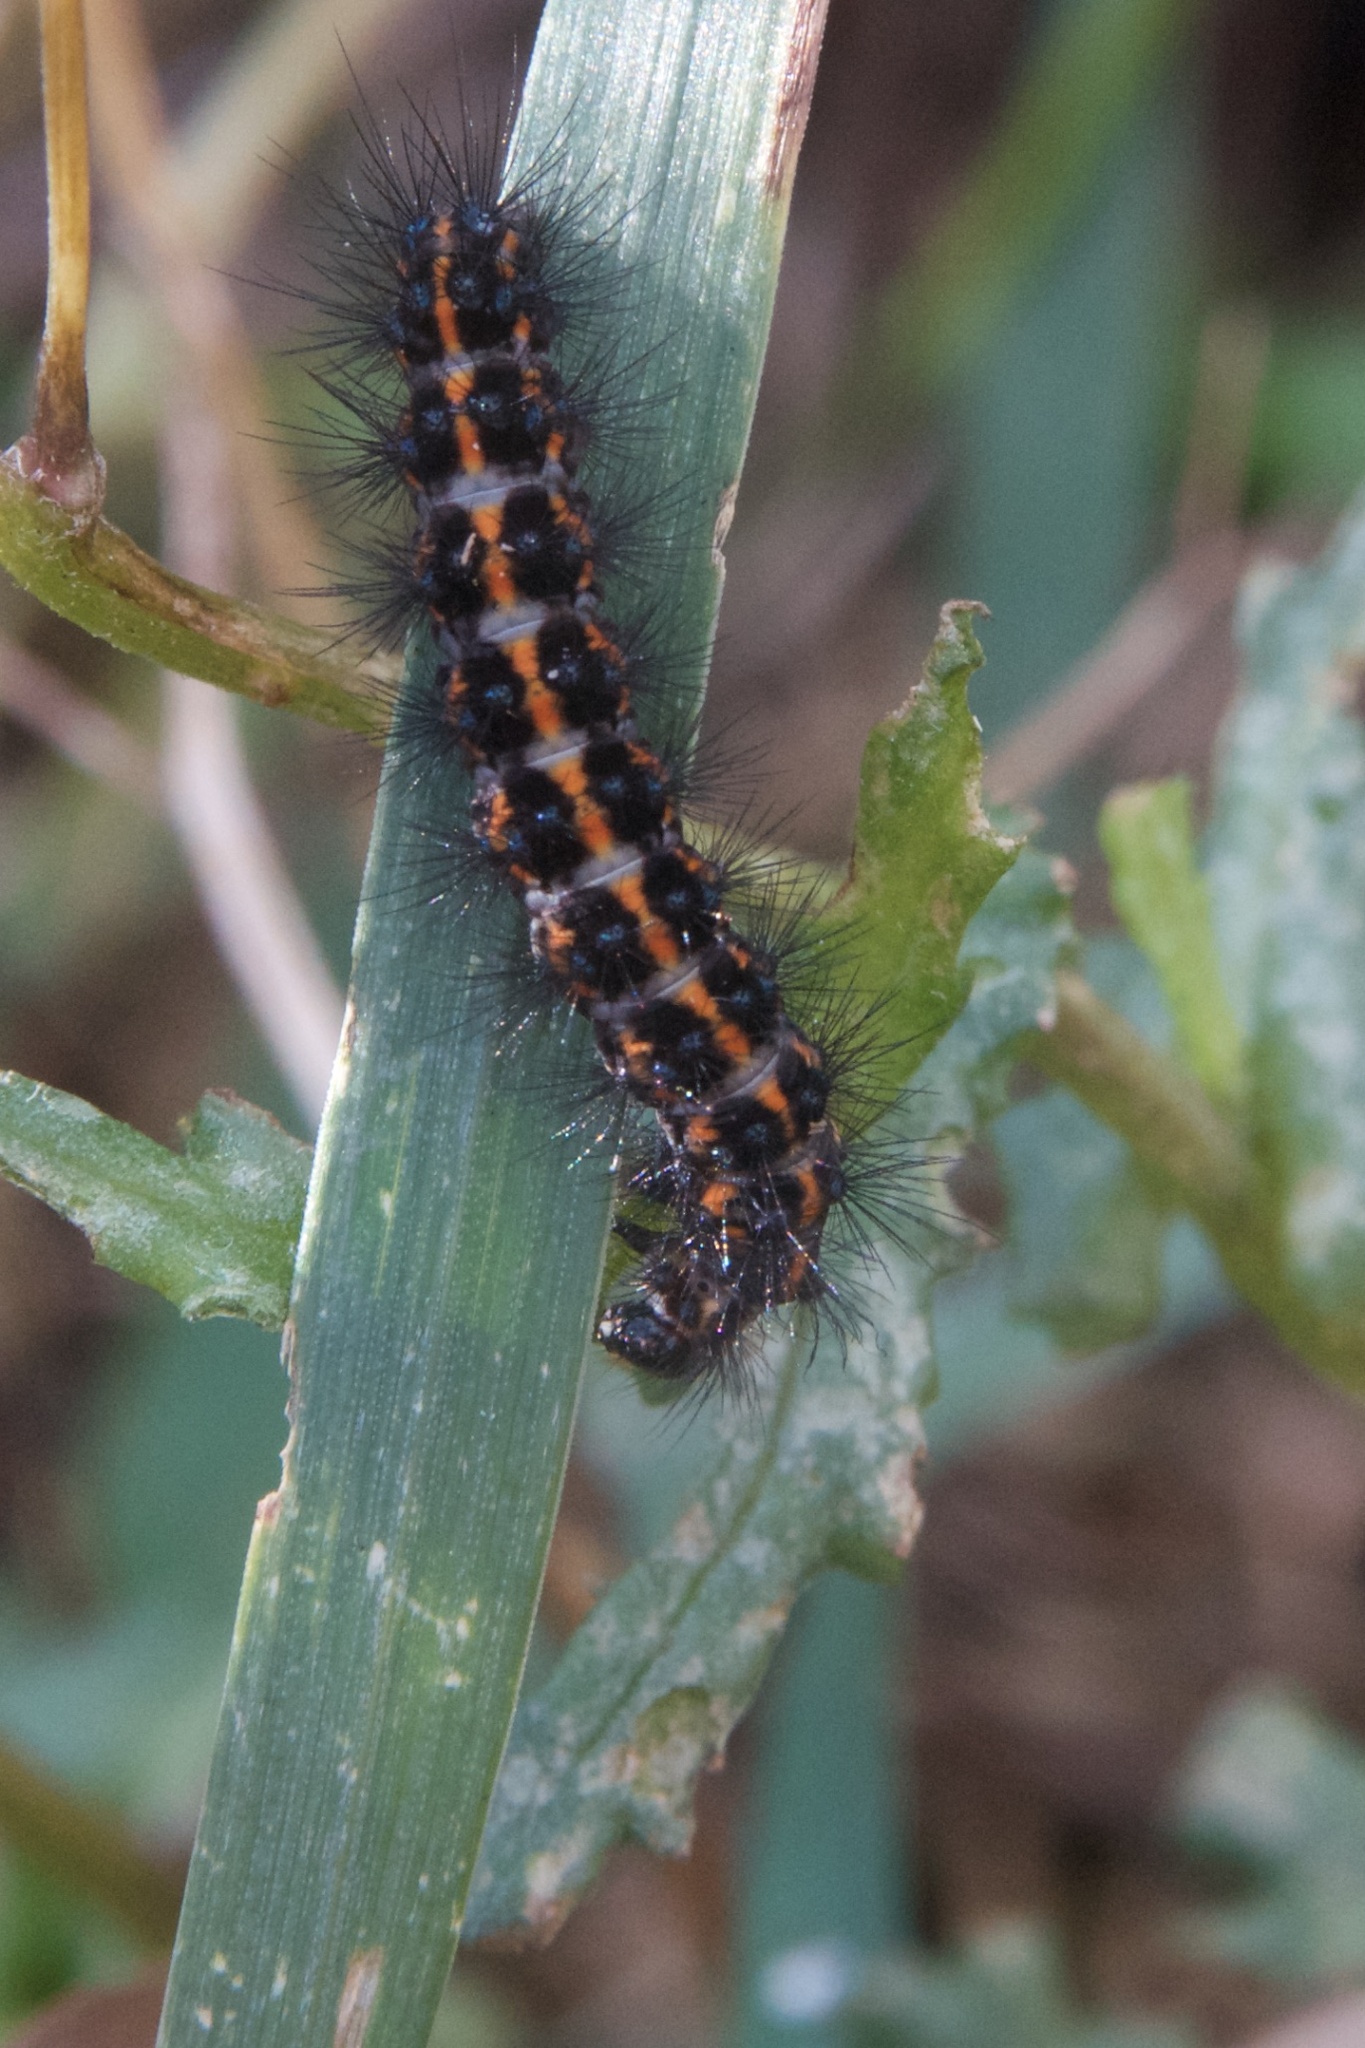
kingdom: Animalia
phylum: Arthropoda
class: Insecta
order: Lepidoptera
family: Erebidae
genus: Nyctemera
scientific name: Nyctemera annulatum
